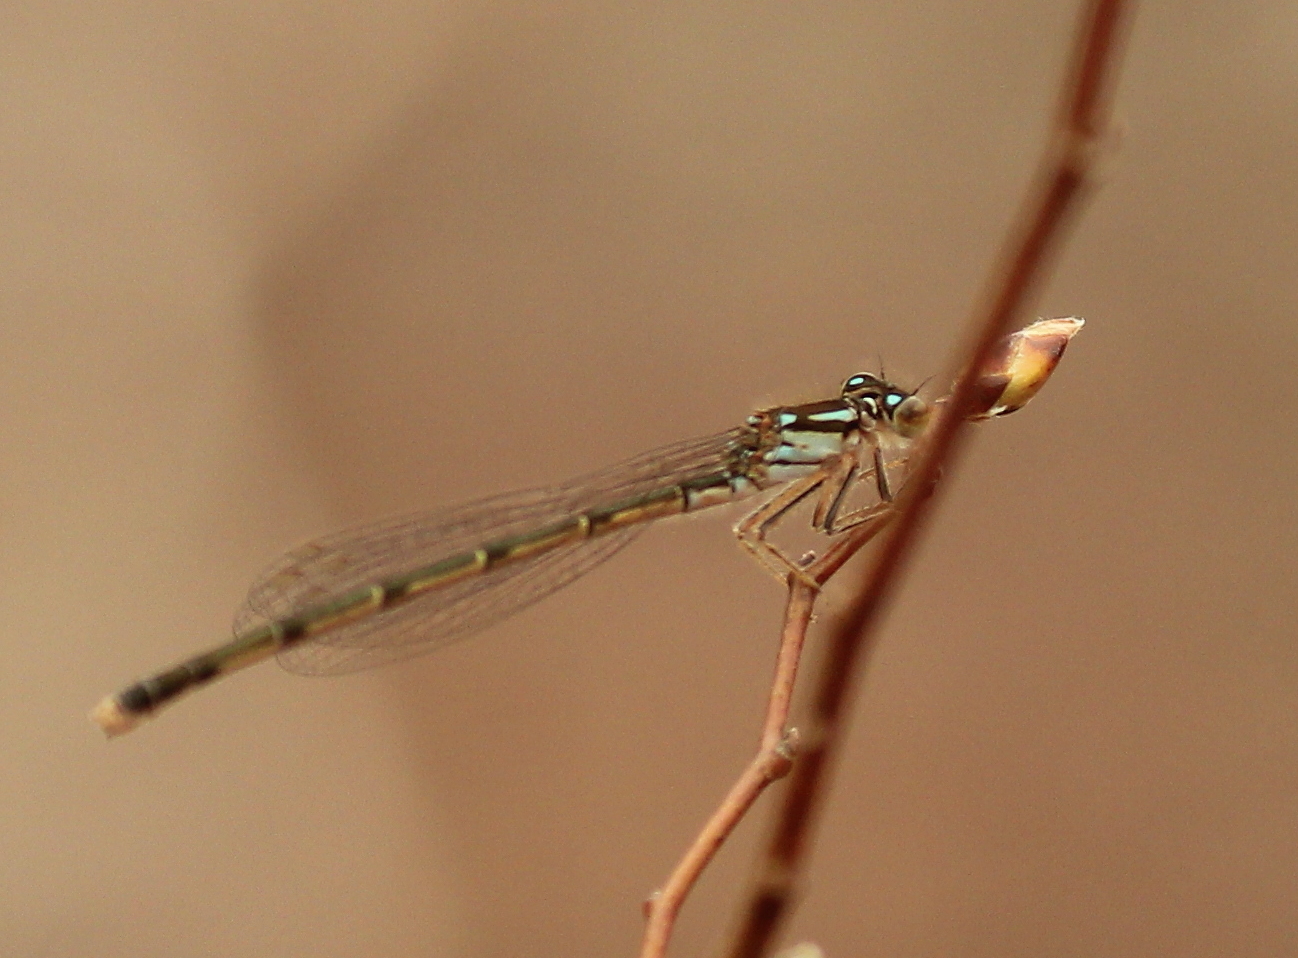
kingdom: Animalia
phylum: Arthropoda
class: Insecta
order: Odonata
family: Coenagrionidae
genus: Ischnura
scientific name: Ischnura posita
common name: Fragile forktail
